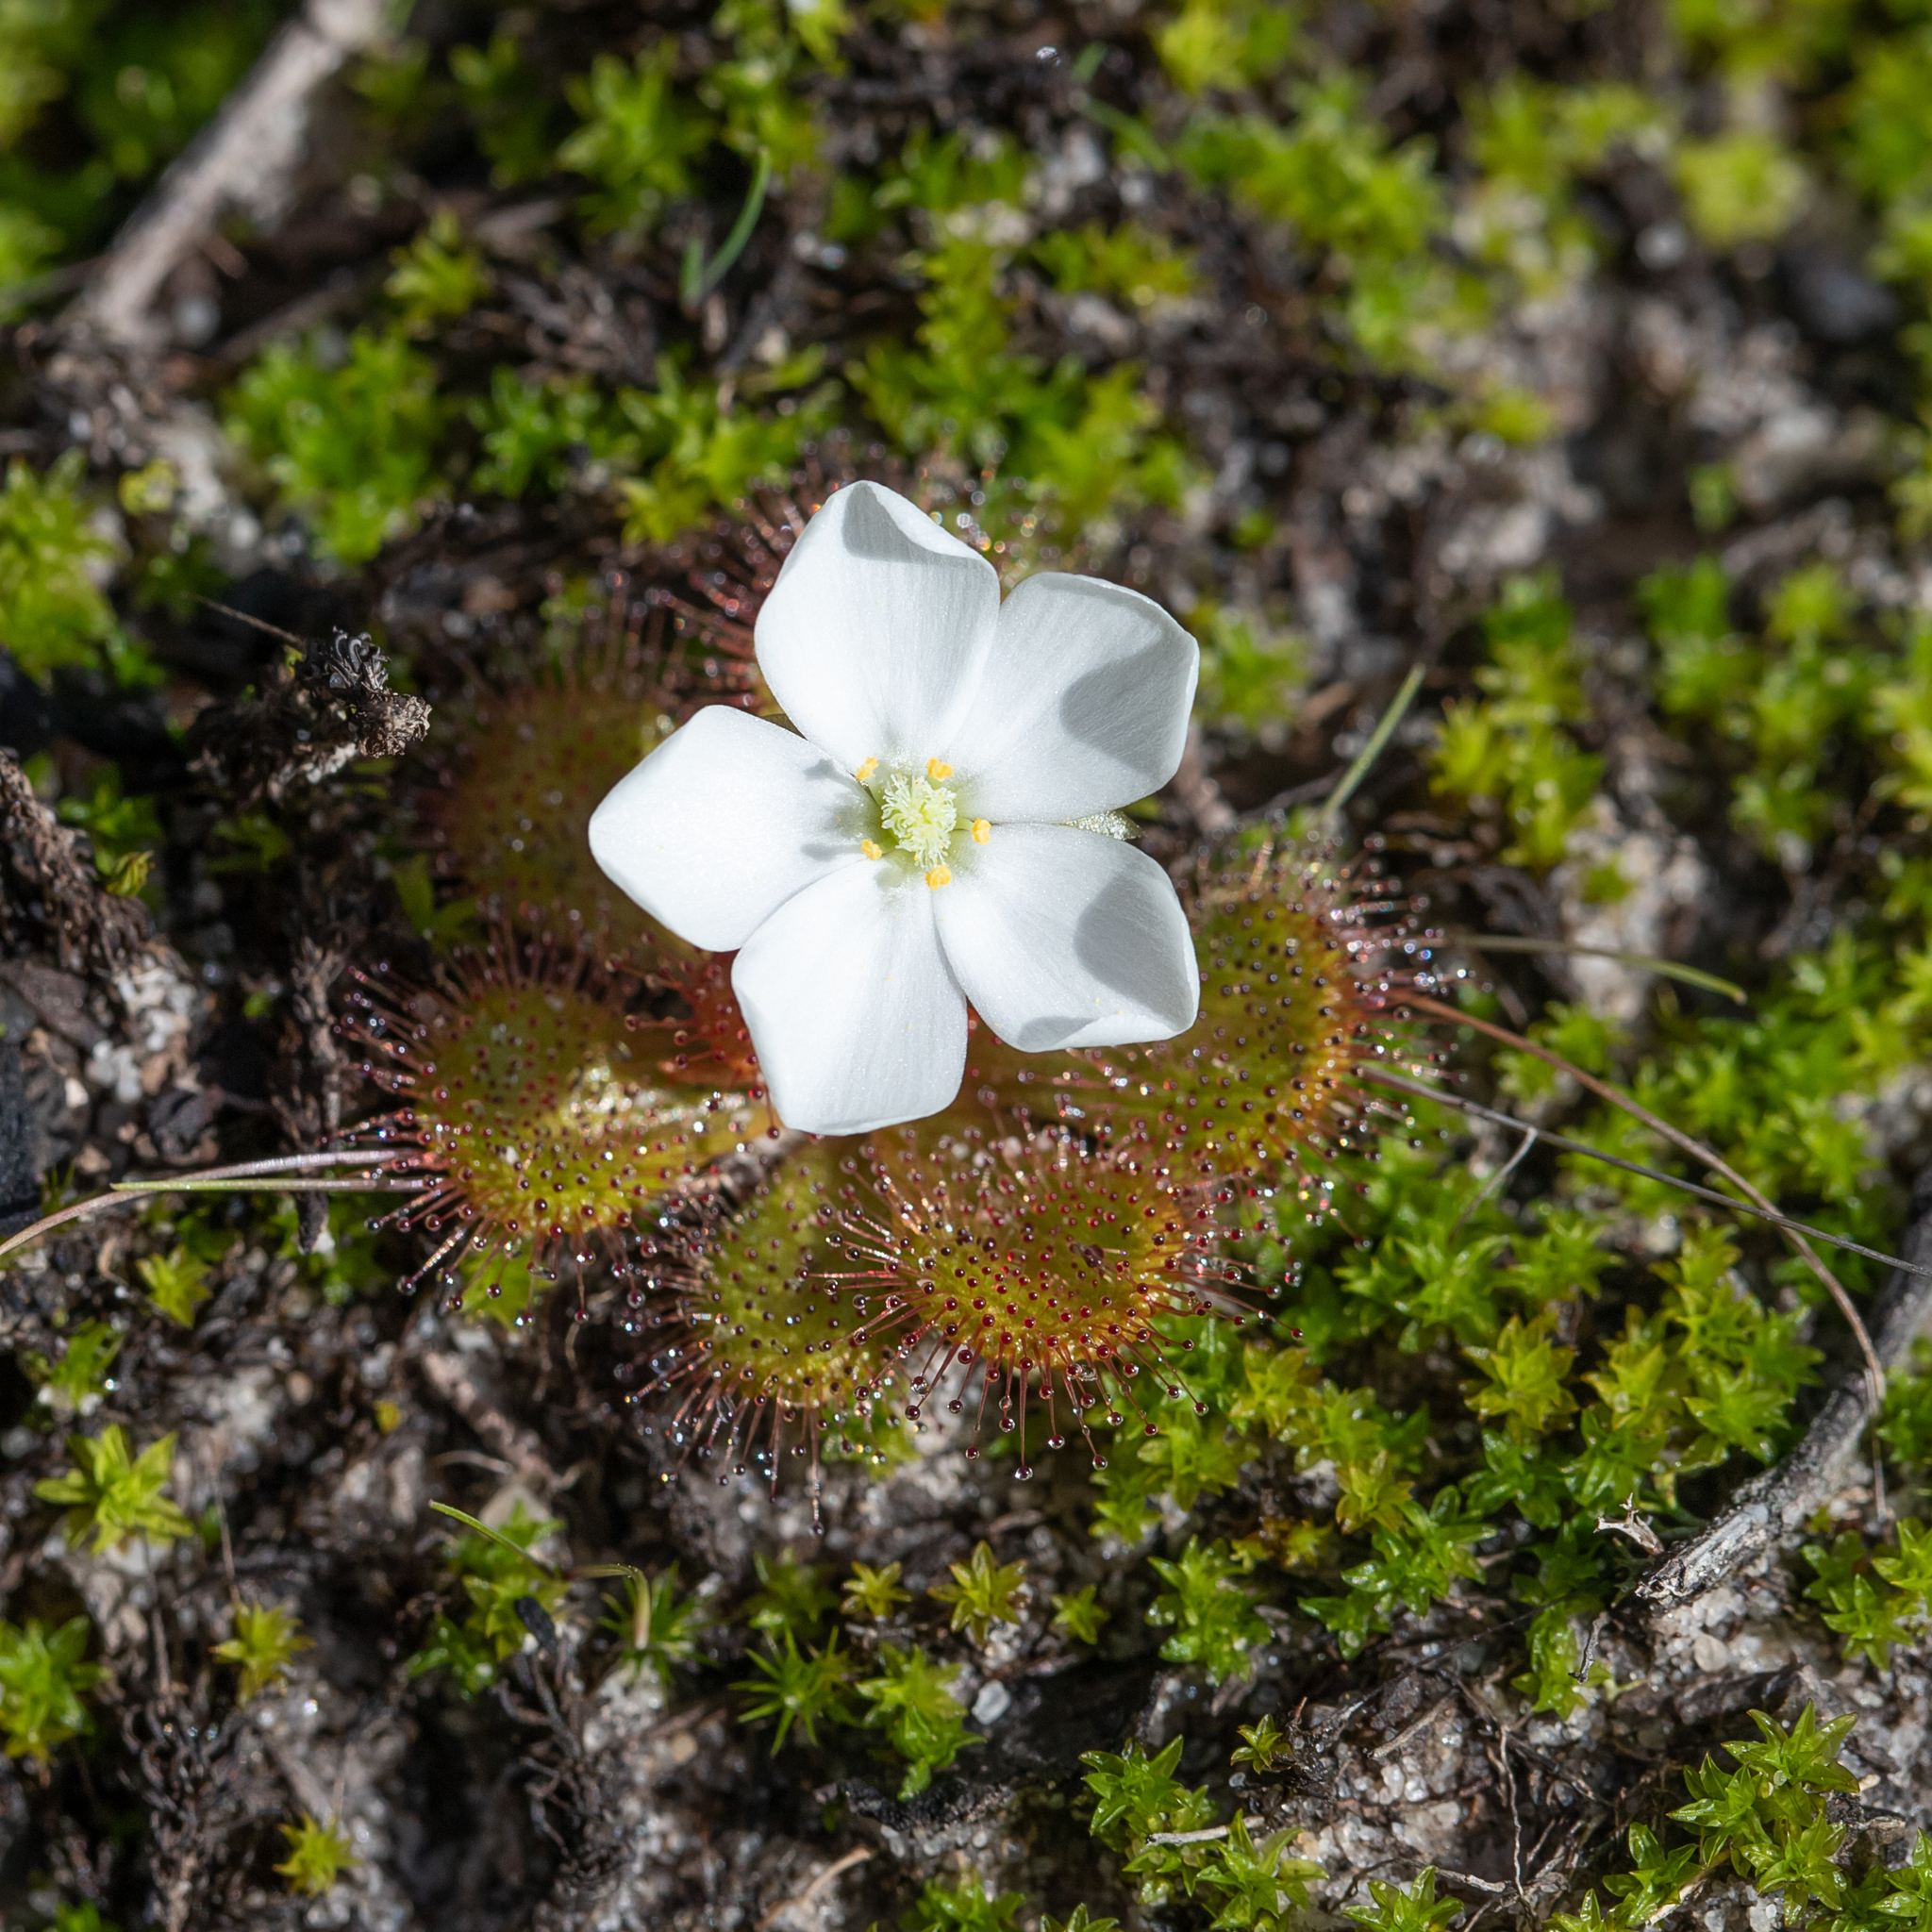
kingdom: Plantae
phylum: Tracheophyta
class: Magnoliopsida
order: Caryophyllales
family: Droseraceae
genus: Drosera
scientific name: Drosera aberrans
